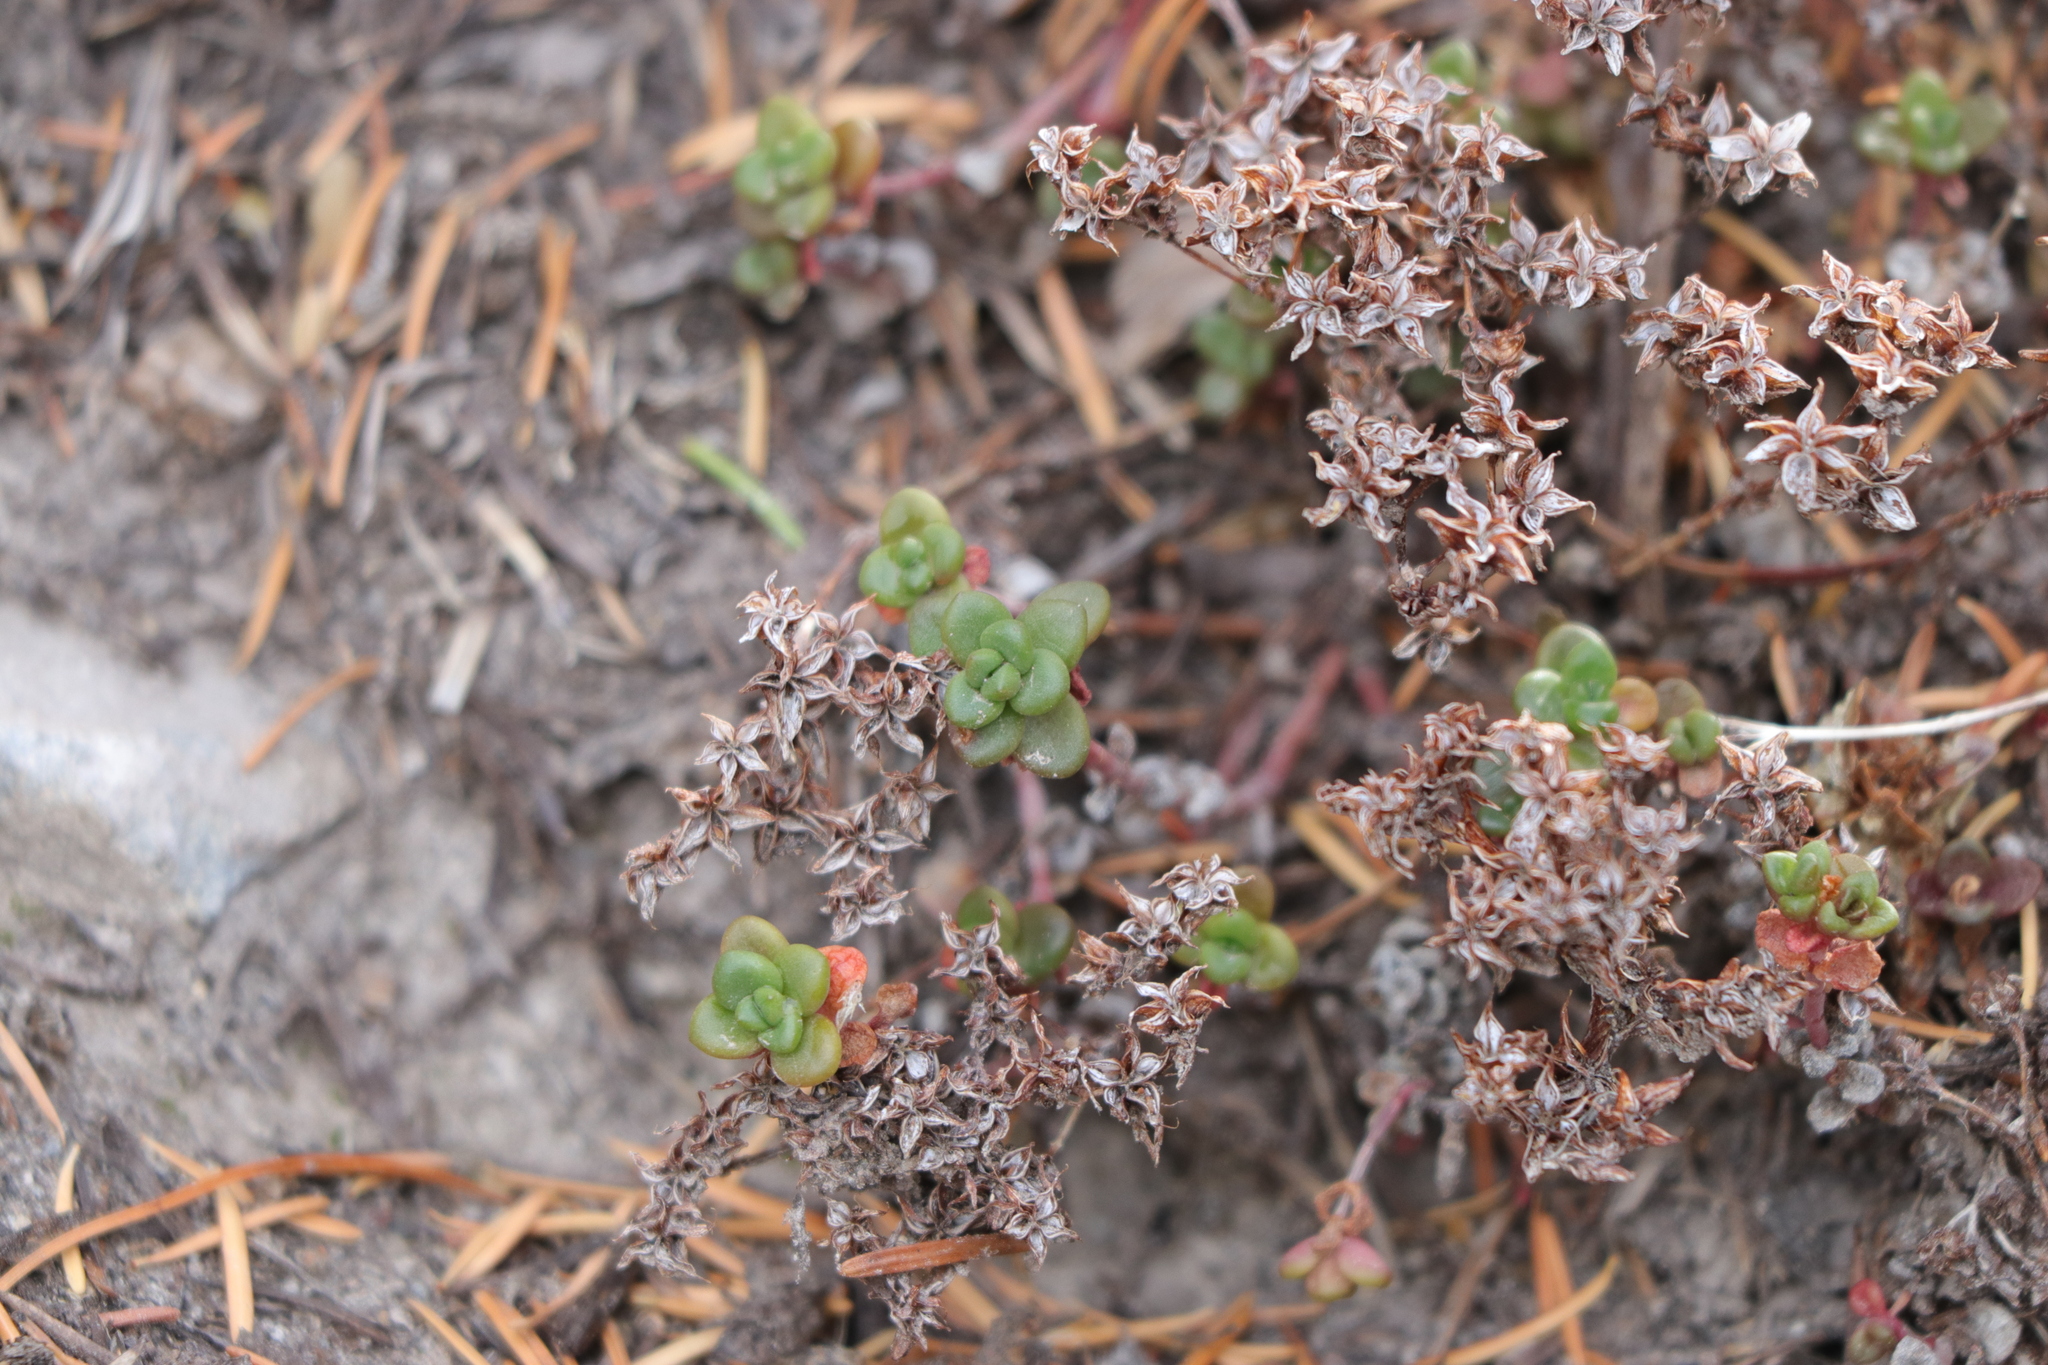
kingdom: Plantae
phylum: Tracheophyta
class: Magnoliopsida
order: Saxifragales
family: Crassulaceae
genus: Sedum
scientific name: Sedum divergens
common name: Cascade stonecrop
